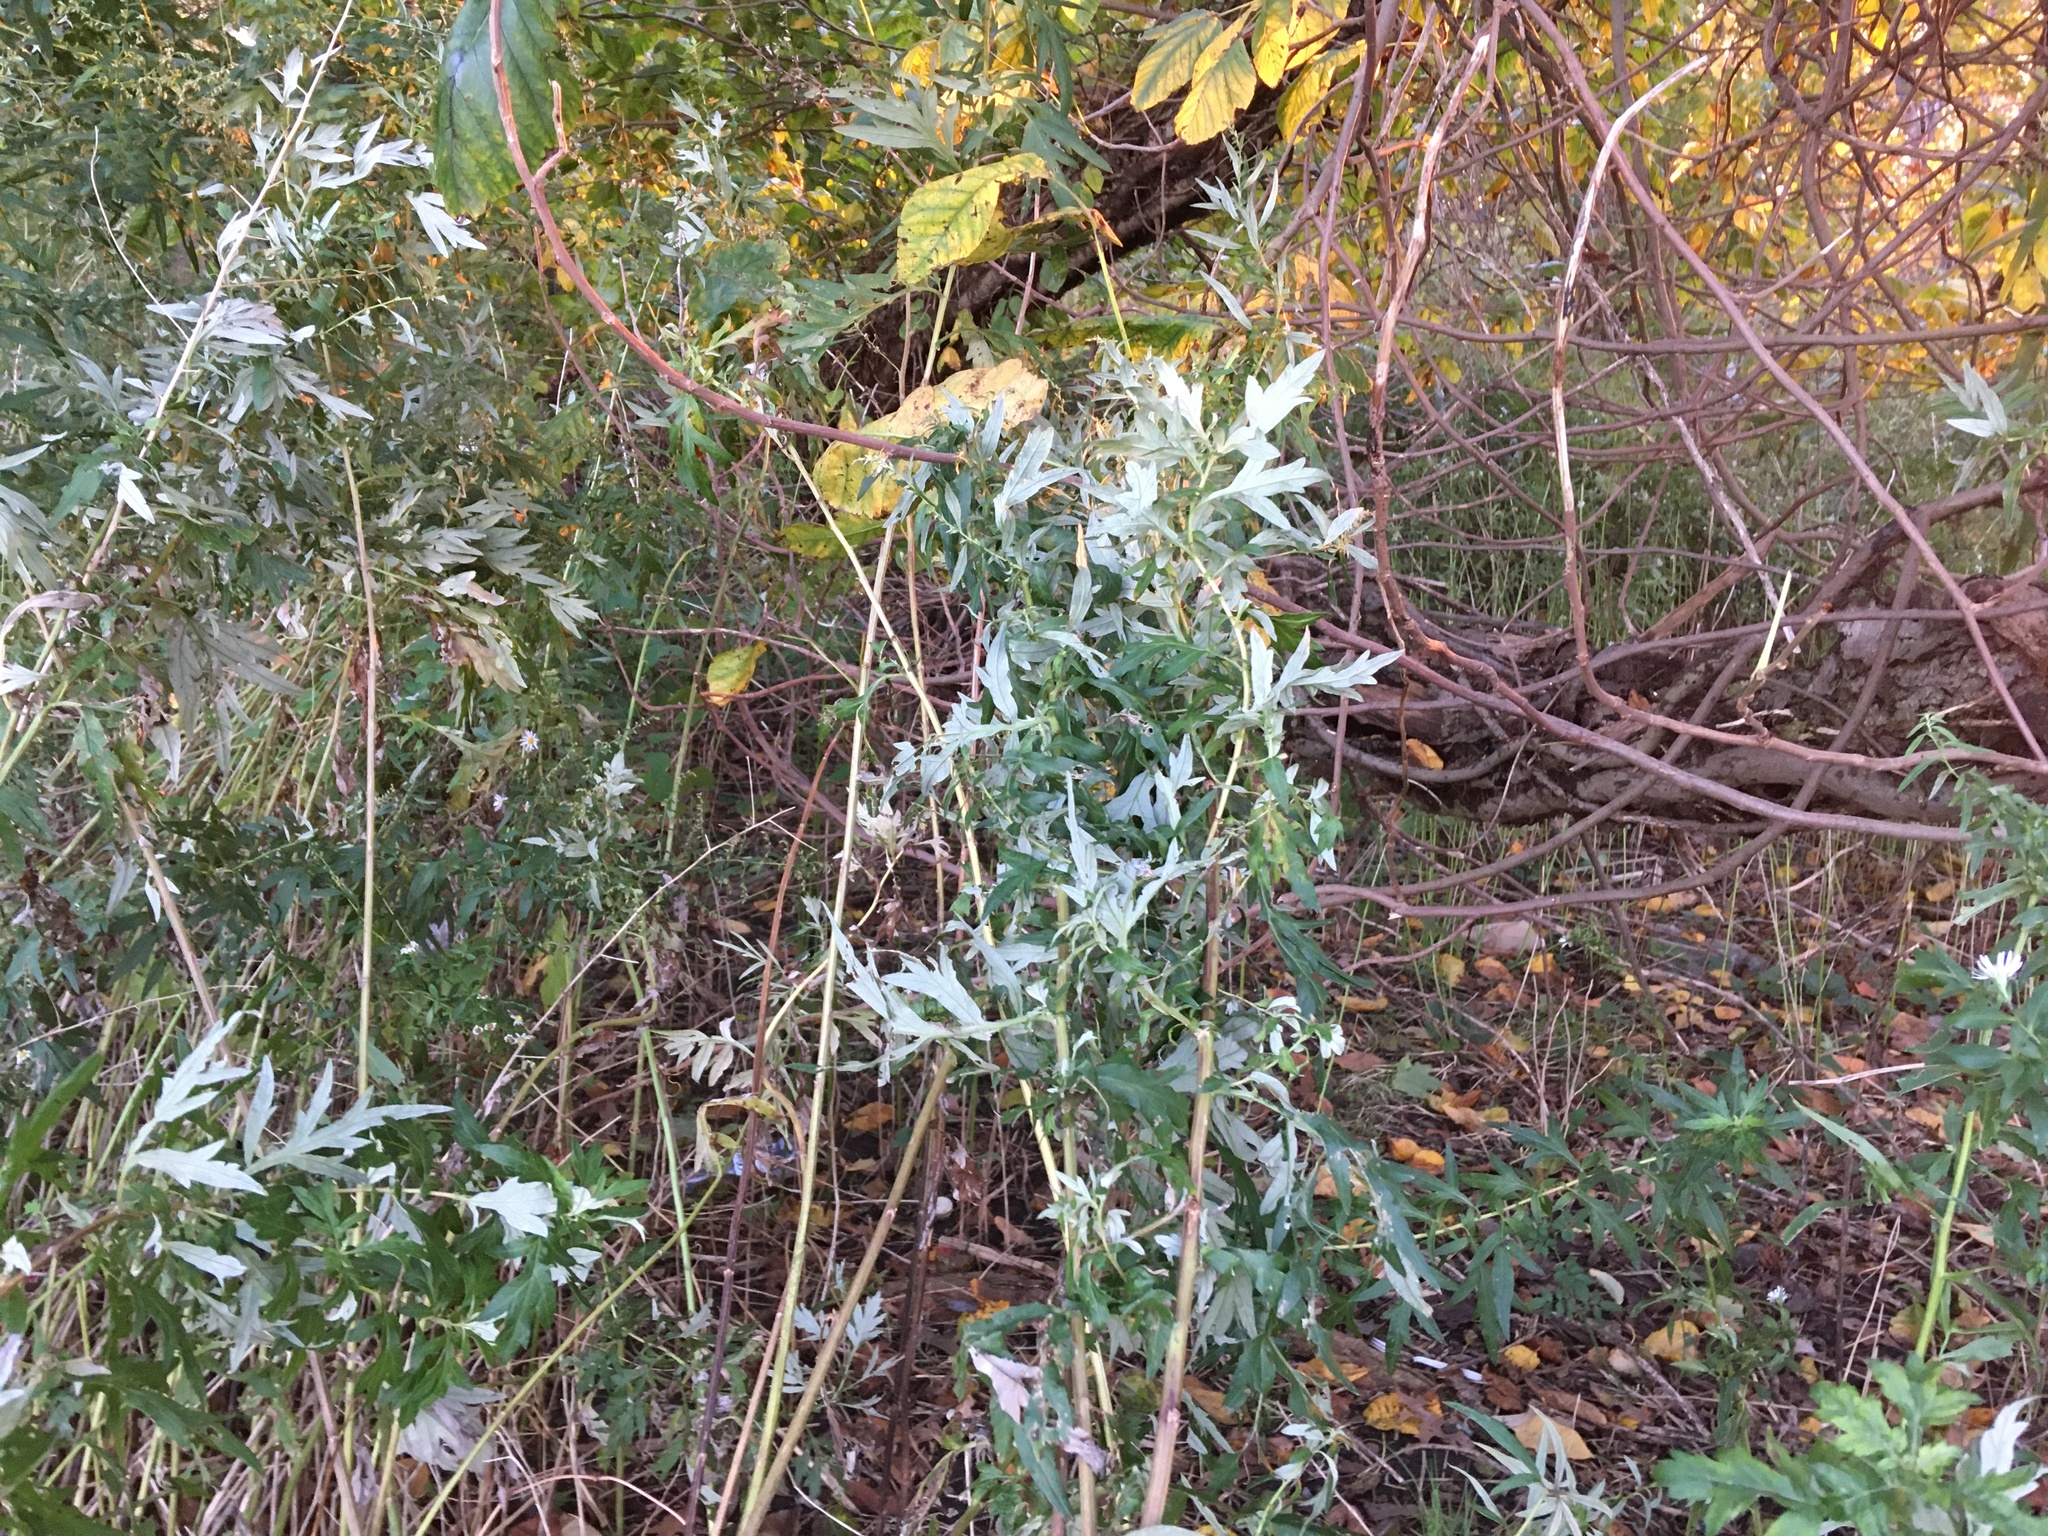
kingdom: Plantae
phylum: Tracheophyta
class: Magnoliopsida
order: Asterales
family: Asteraceae
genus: Artemisia
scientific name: Artemisia vulgaris
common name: Mugwort
